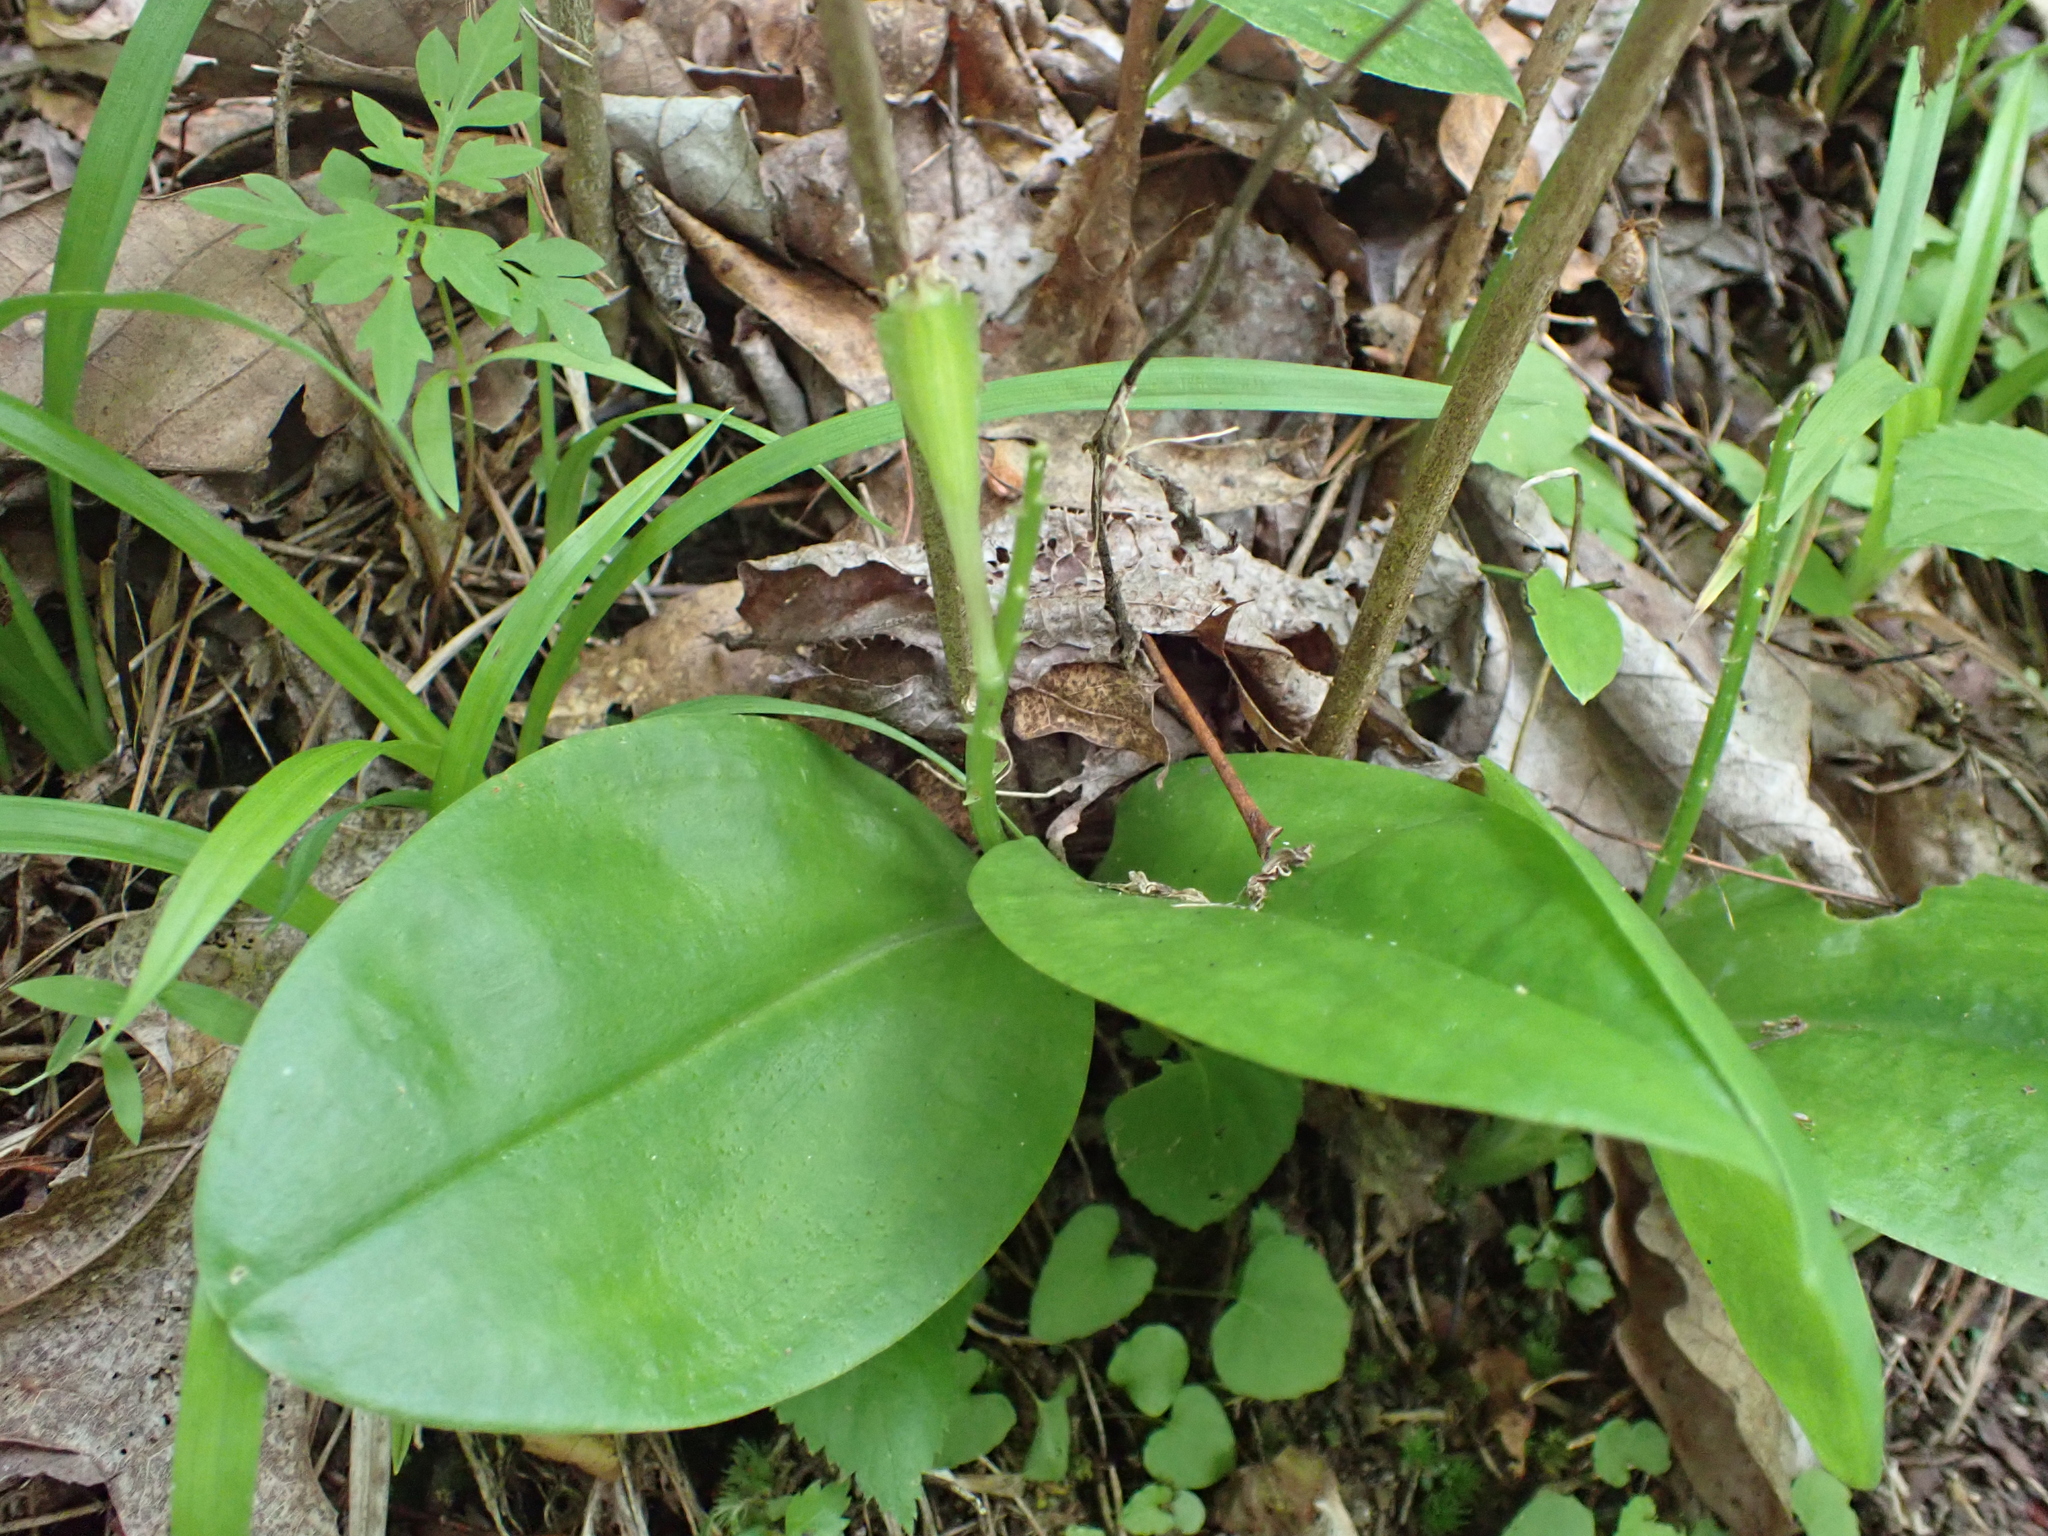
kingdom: Plantae
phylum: Tracheophyta
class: Liliopsida
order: Asparagales
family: Orchidaceae
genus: Liparis
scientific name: Liparis liliifolia
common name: Brown wide-lip orchid
